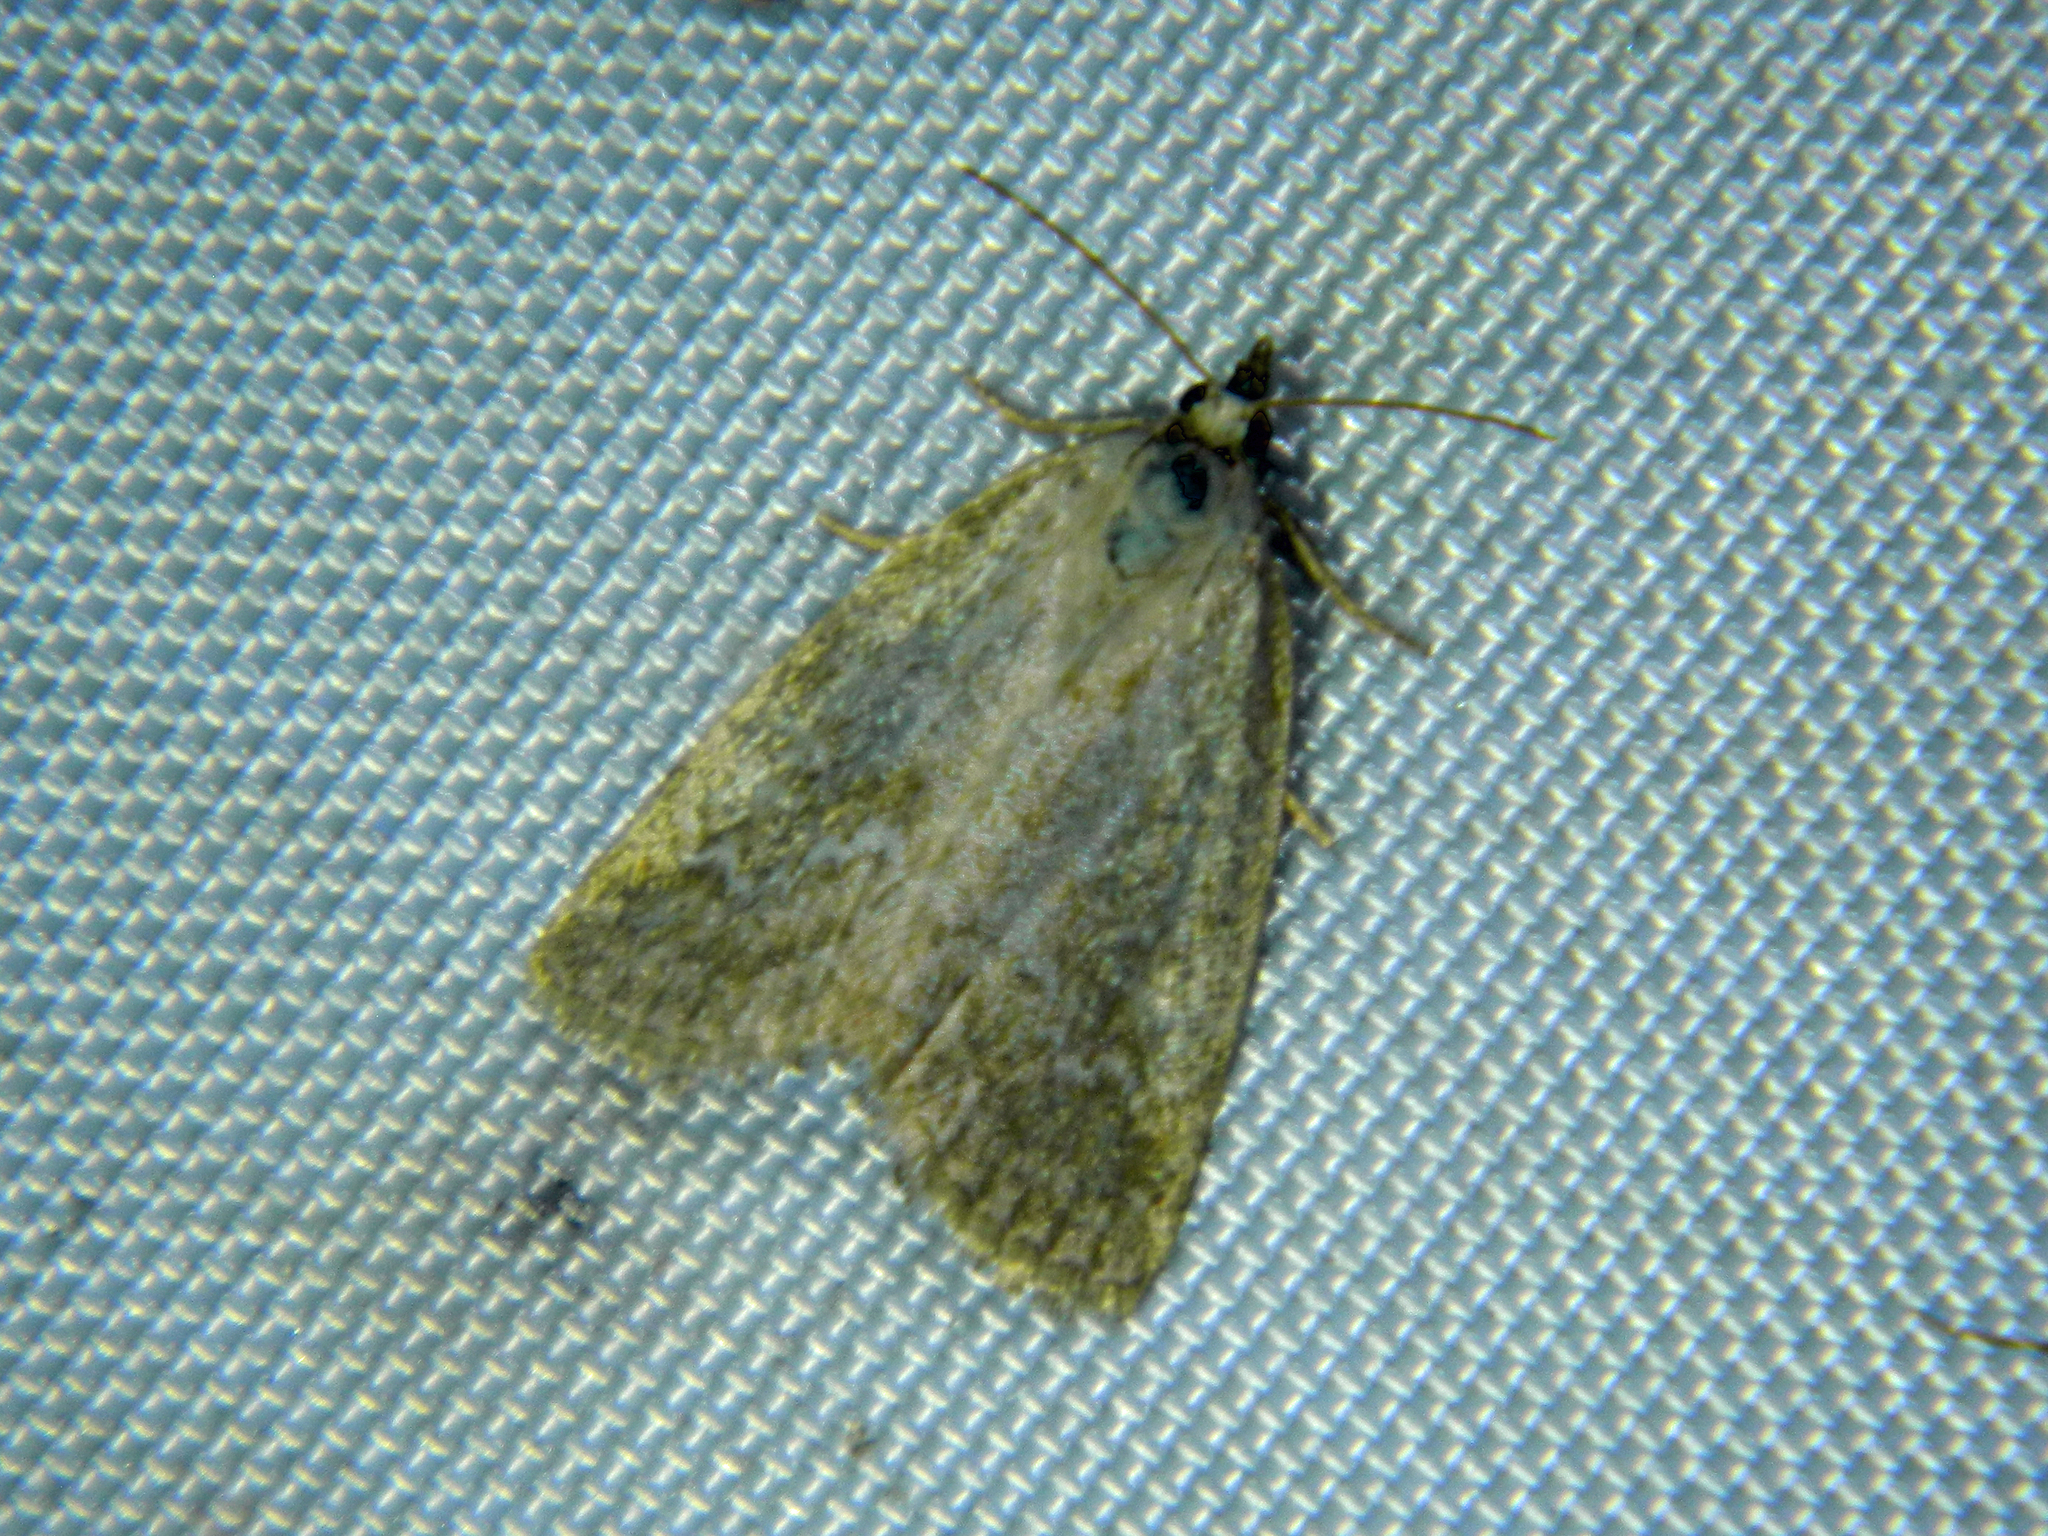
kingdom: Animalia
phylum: Arthropoda
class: Insecta
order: Lepidoptera
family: Noctuidae
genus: Protodeltote
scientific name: Protodeltote albidula
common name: Pale glyph
